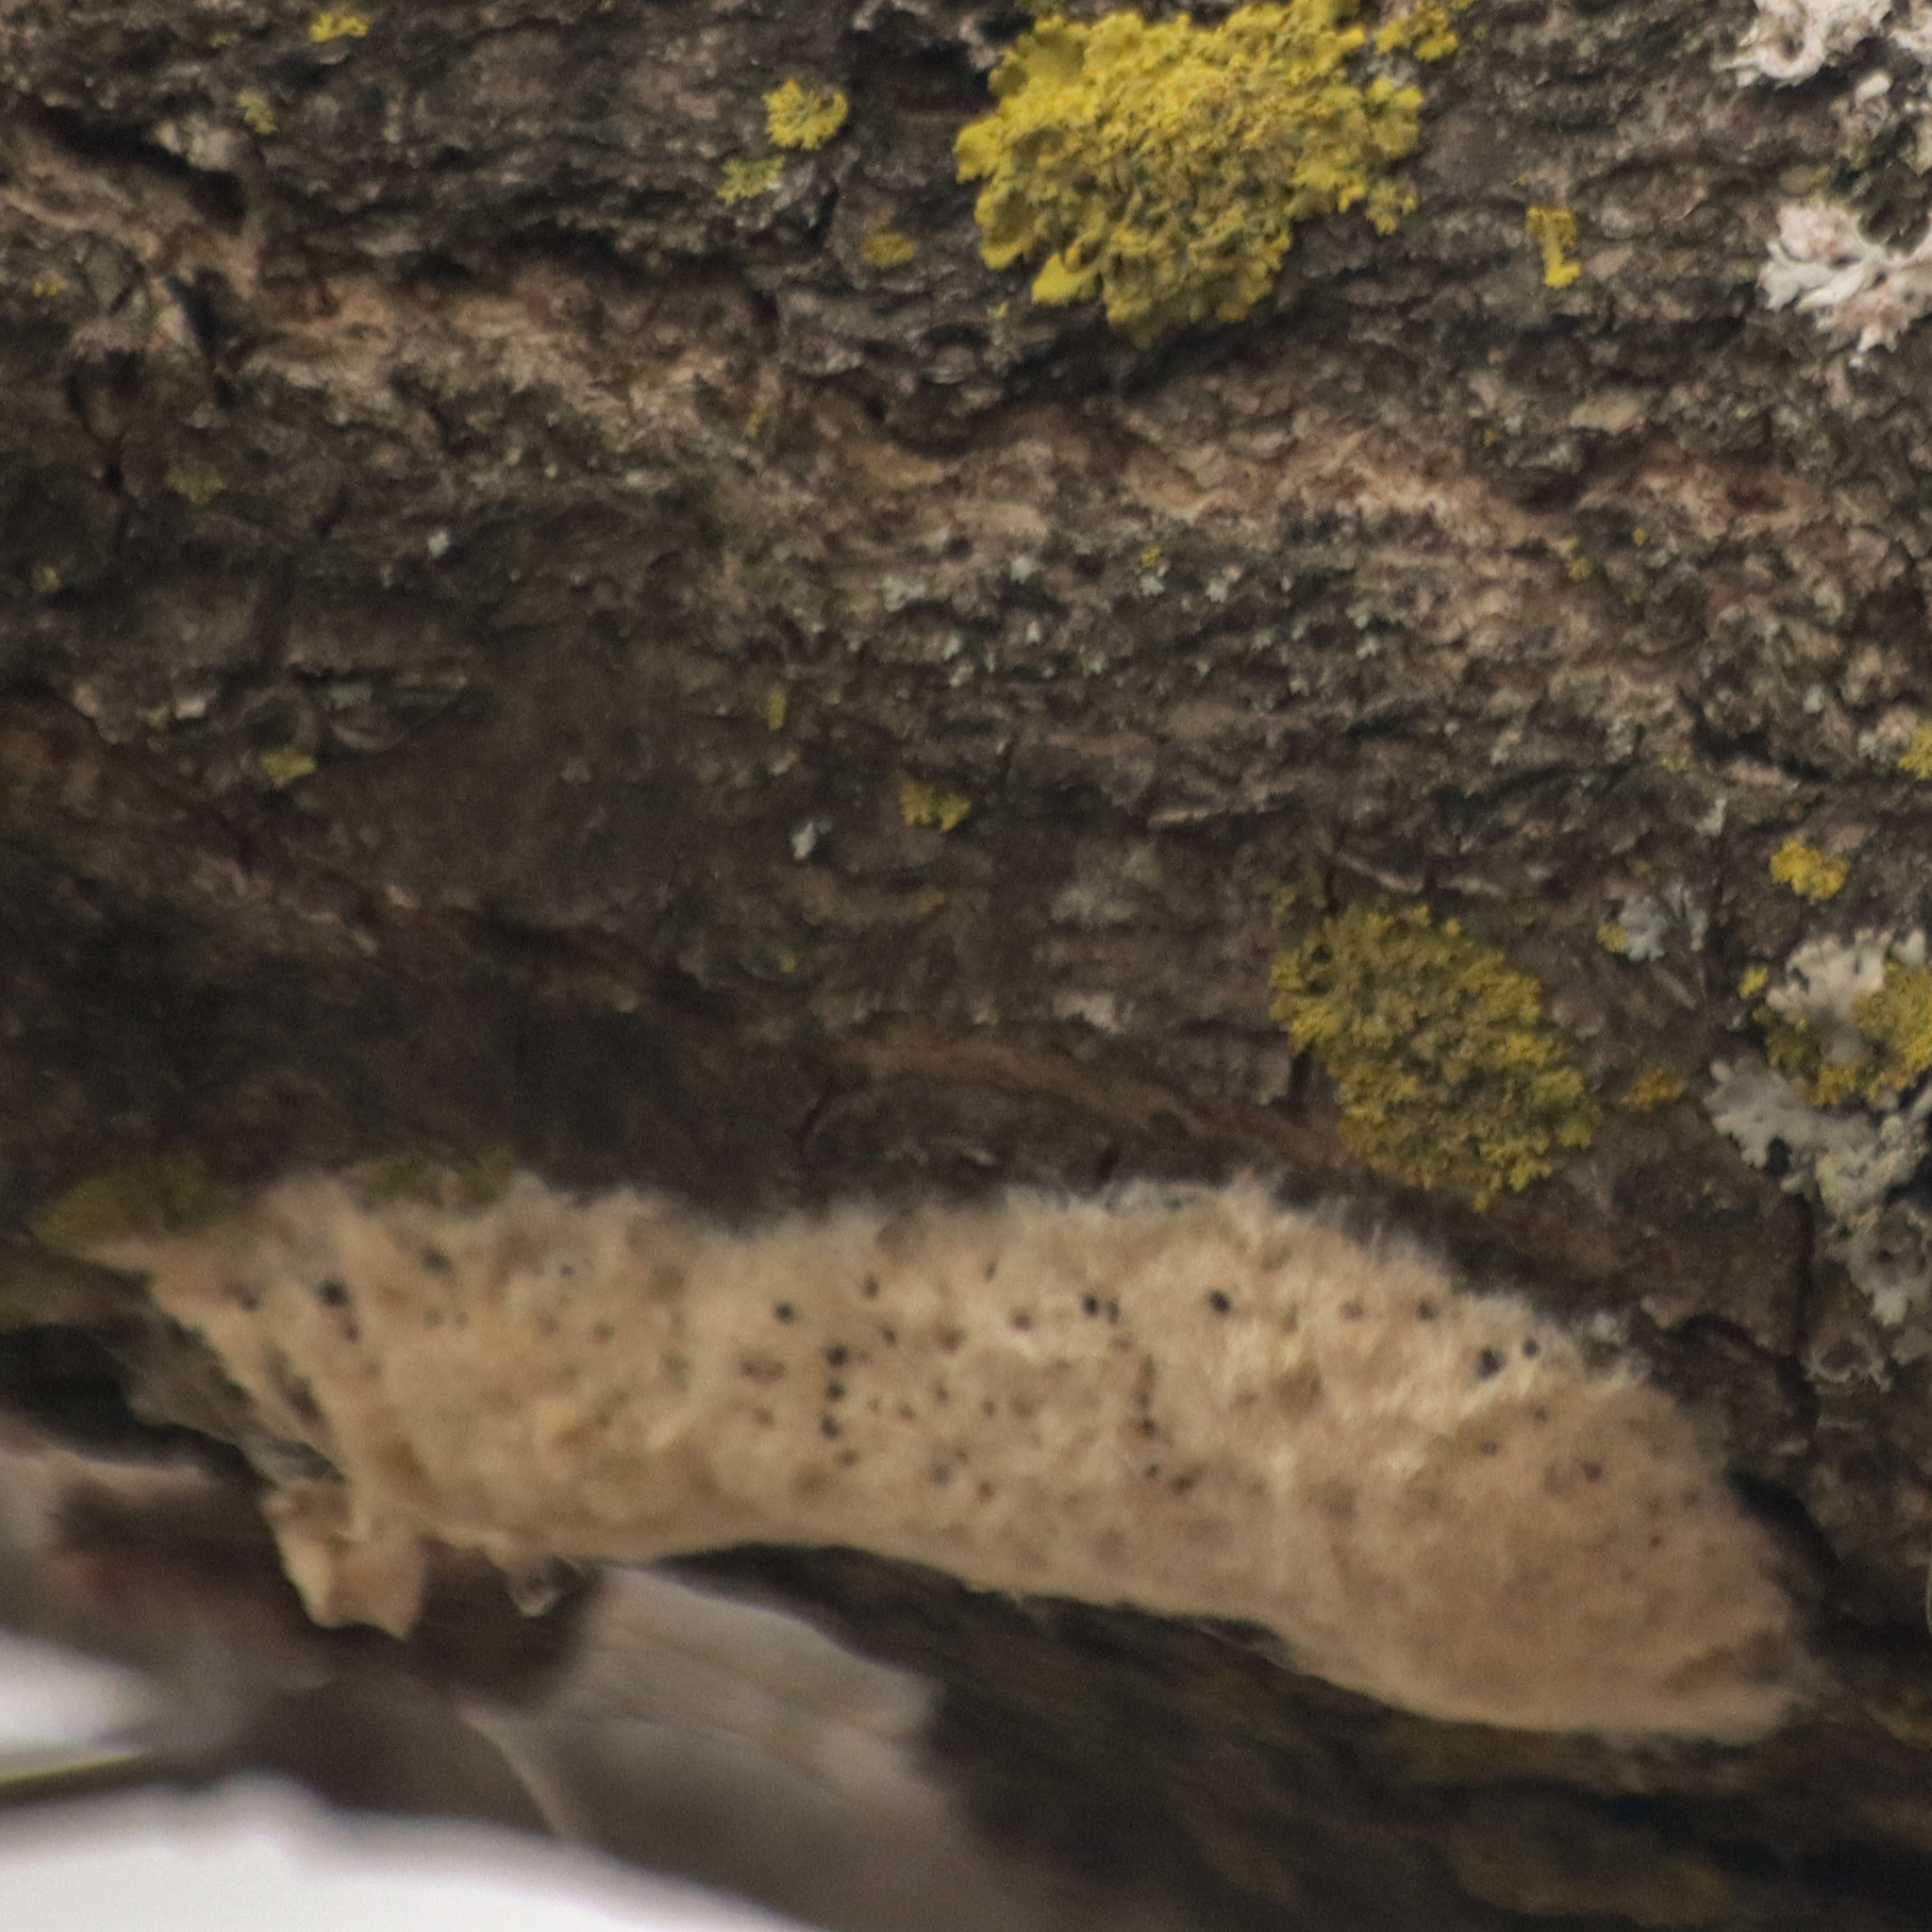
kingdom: Animalia
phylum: Arthropoda
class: Insecta
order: Lepidoptera
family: Erebidae
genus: Lymantria
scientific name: Lymantria dispar
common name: Gypsy moth
